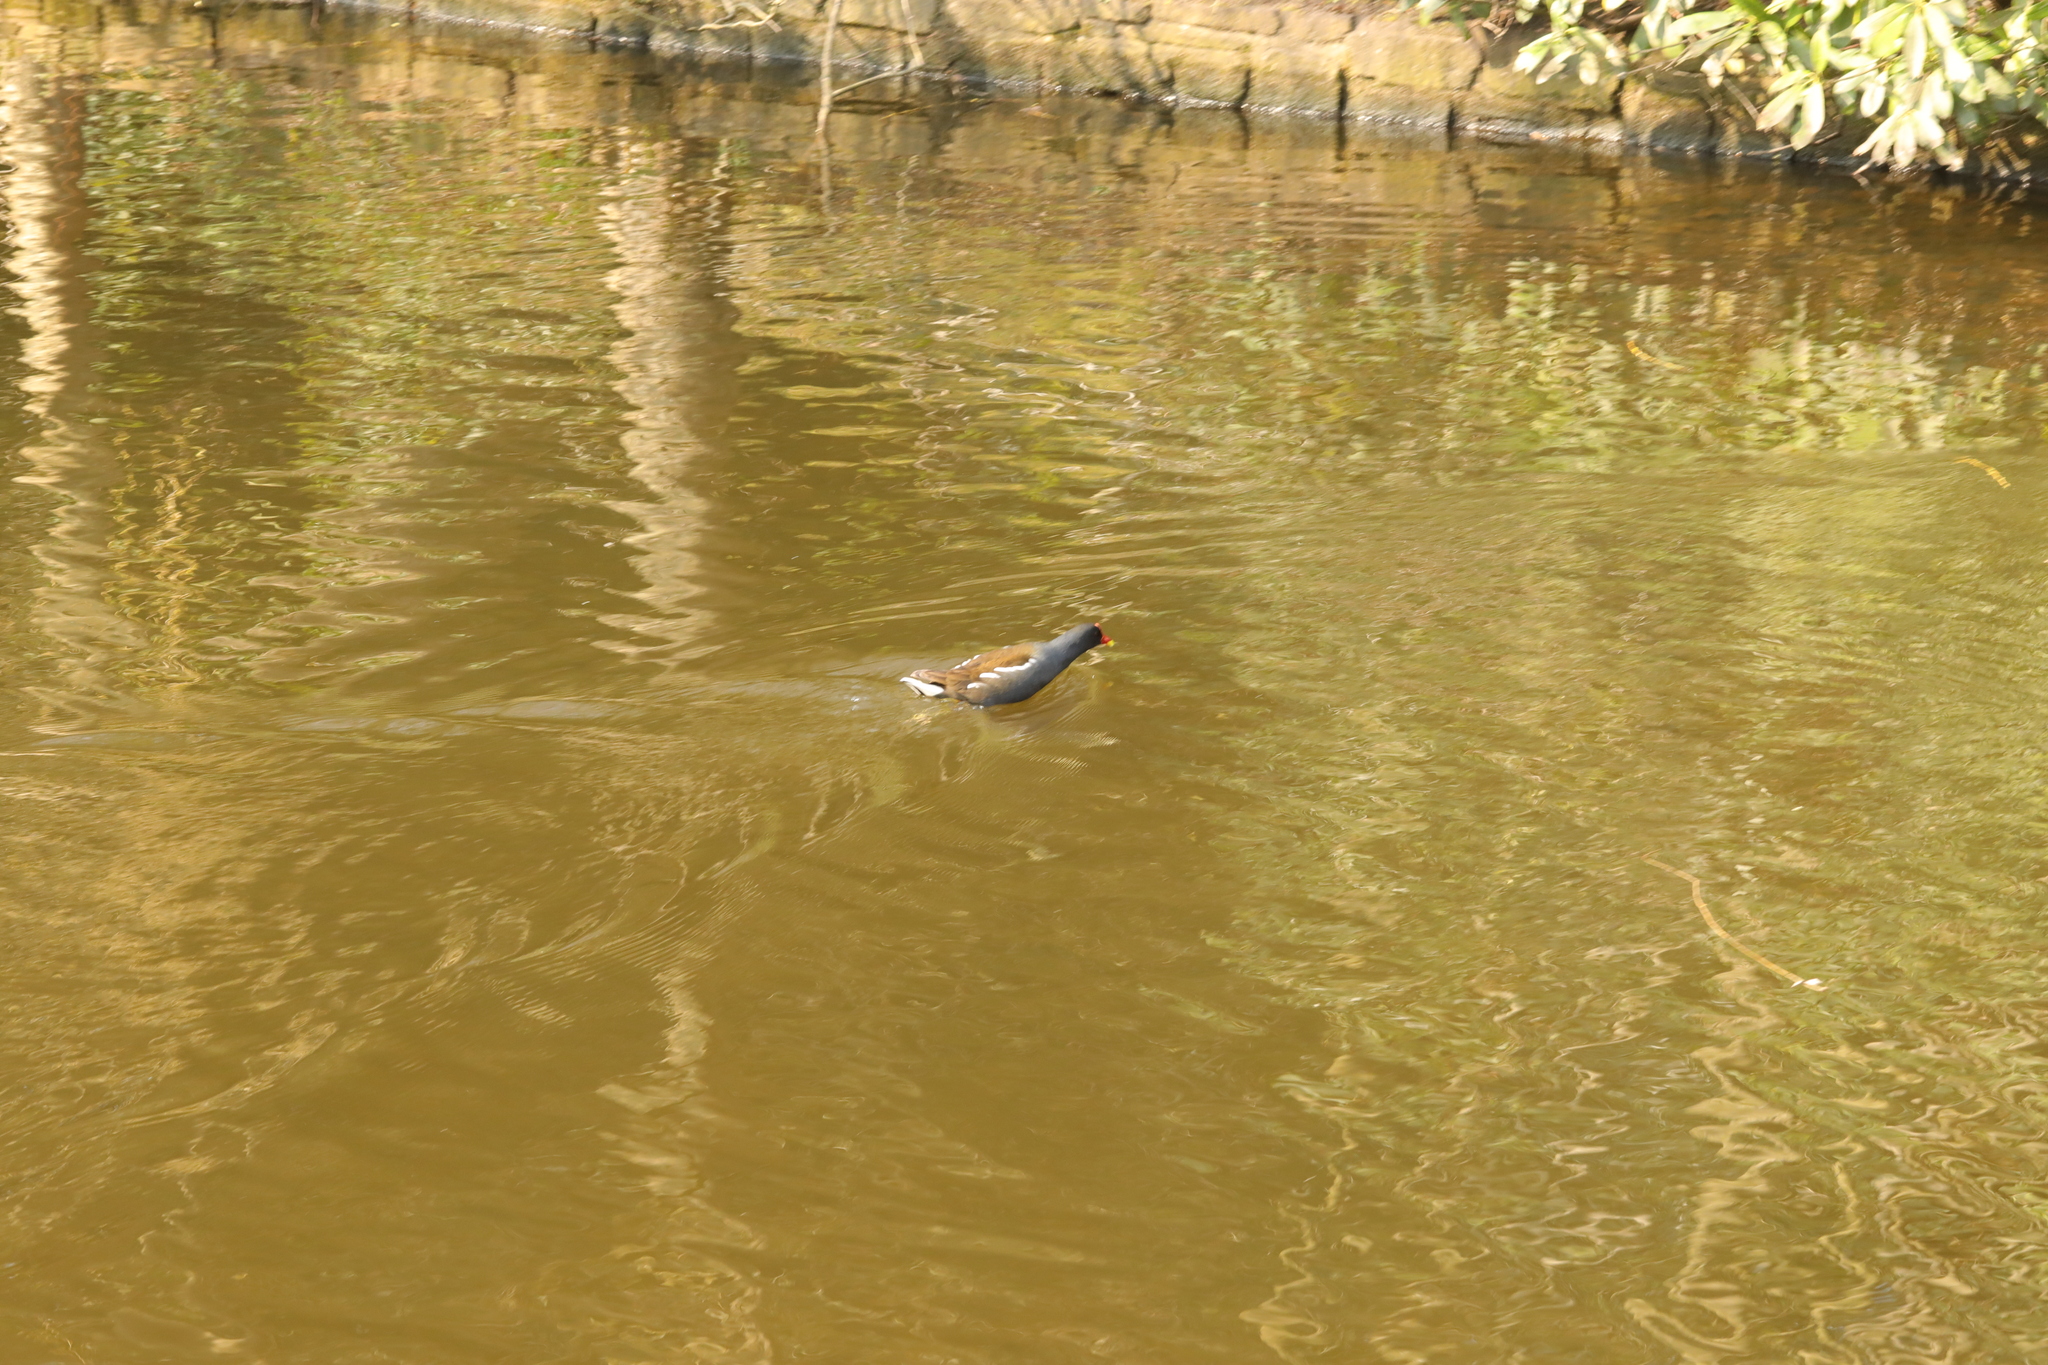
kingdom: Animalia
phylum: Chordata
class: Aves
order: Gruiformes
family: Rallidae
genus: Gallinula
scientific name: Gallinula chloropus
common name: Common moorhen
